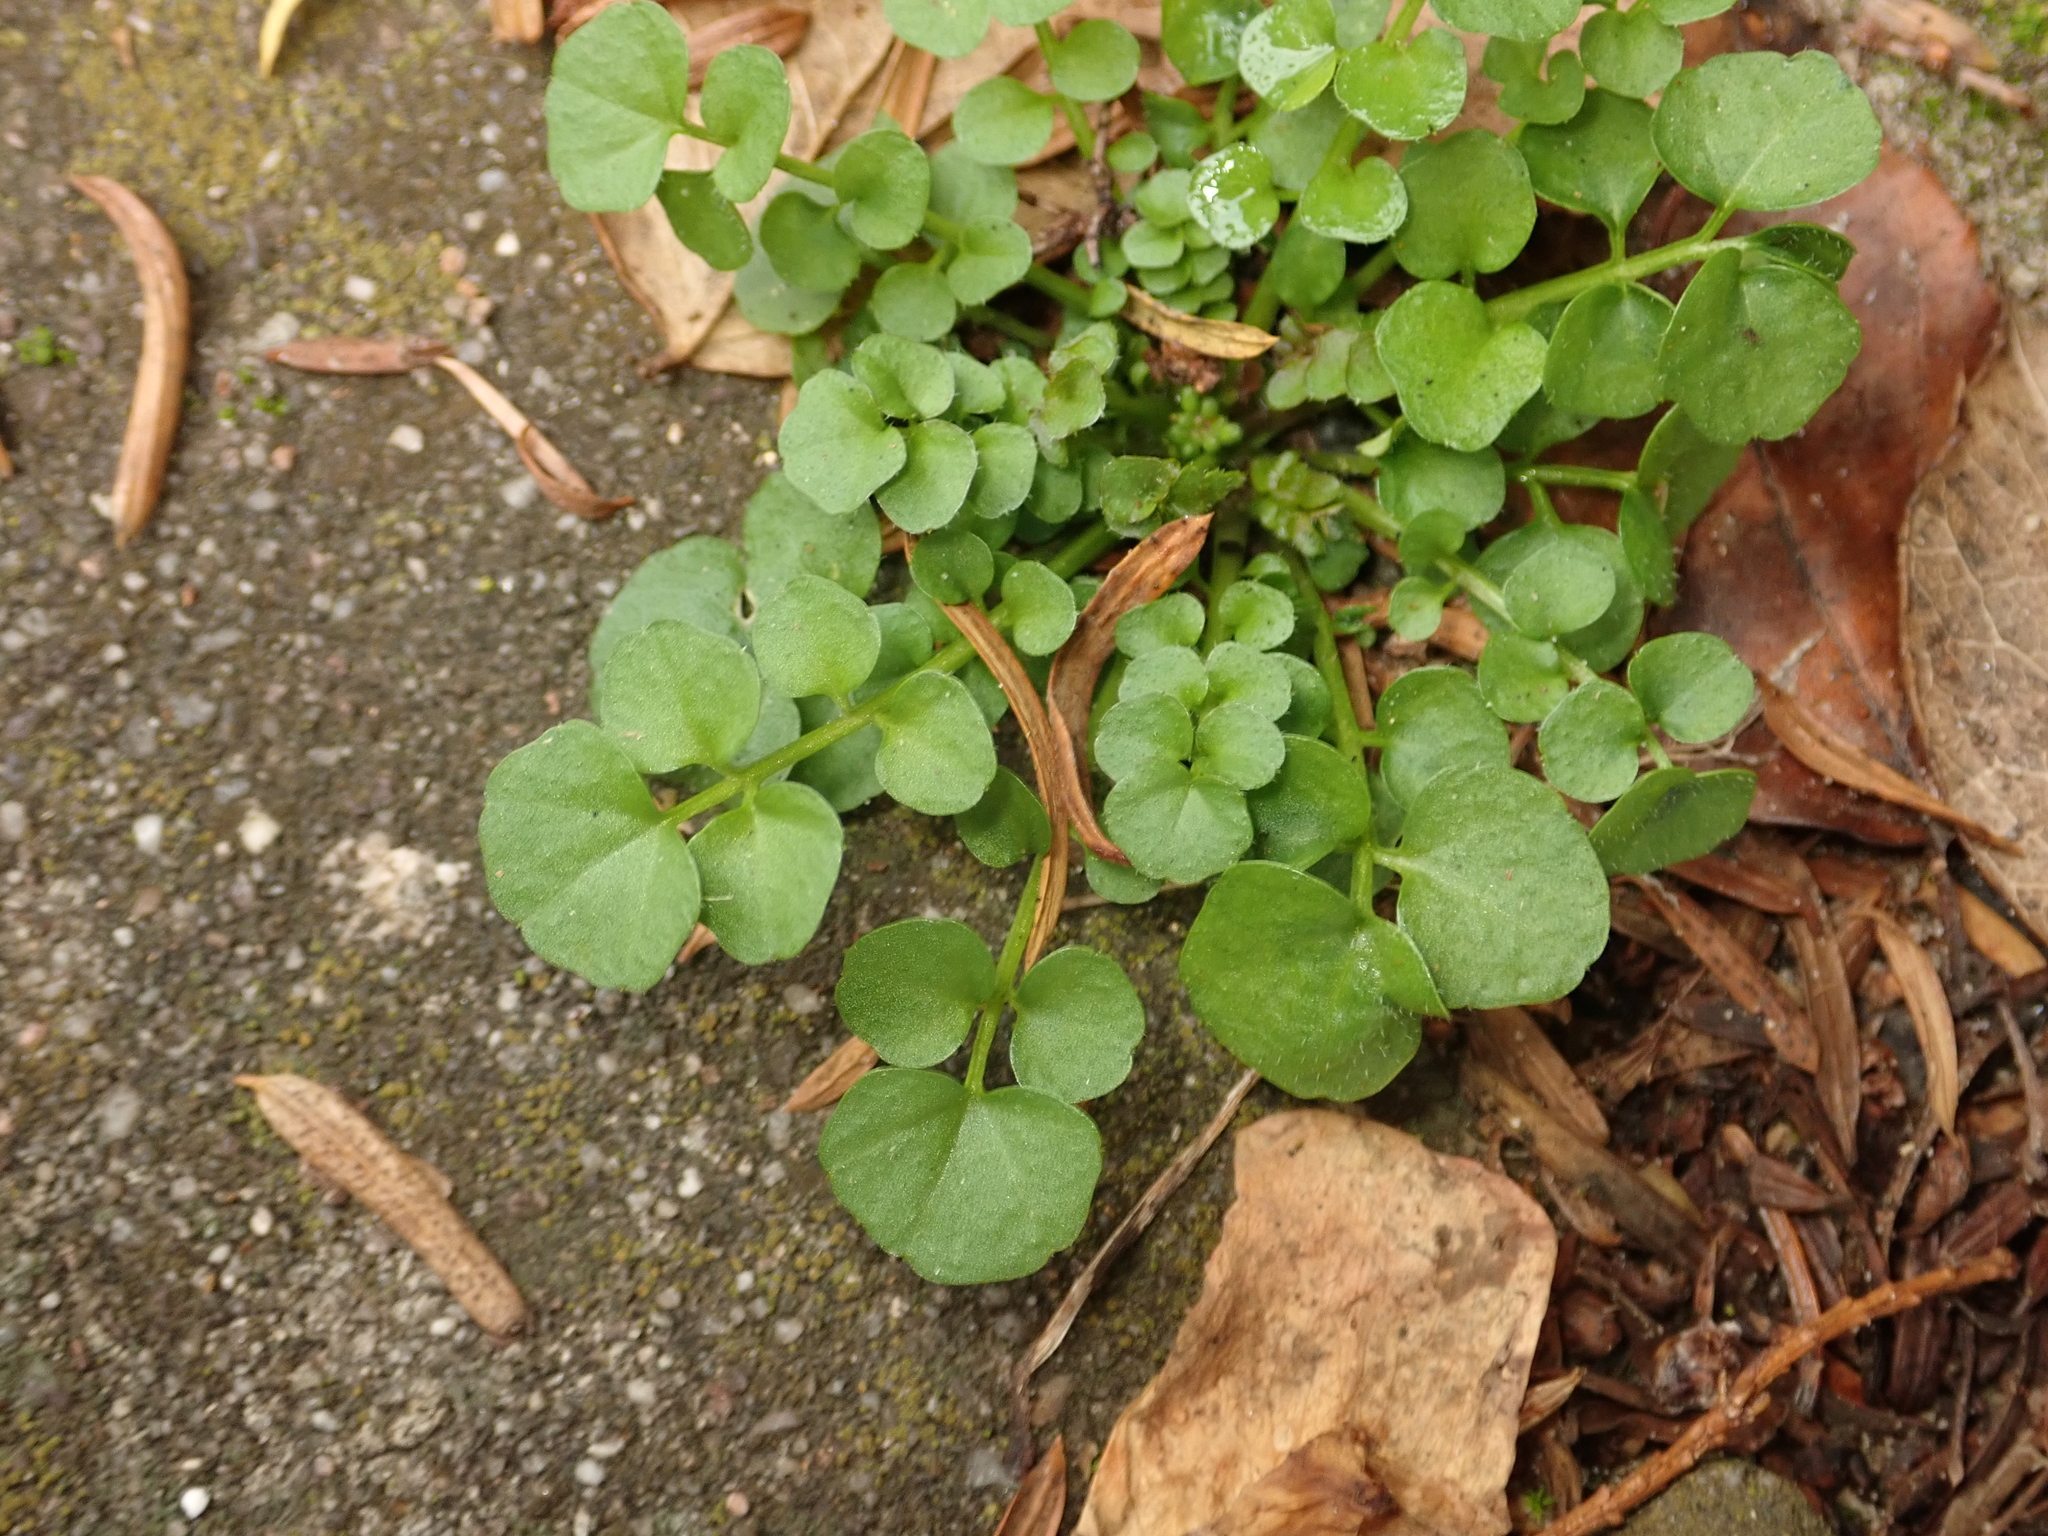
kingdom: Plantae
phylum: Tracheophyta
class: Magnoliopsida
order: Brassicales
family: Brassicaceae
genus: Cardamine
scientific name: Cardamine hirsuta
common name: Hairy bittercress
